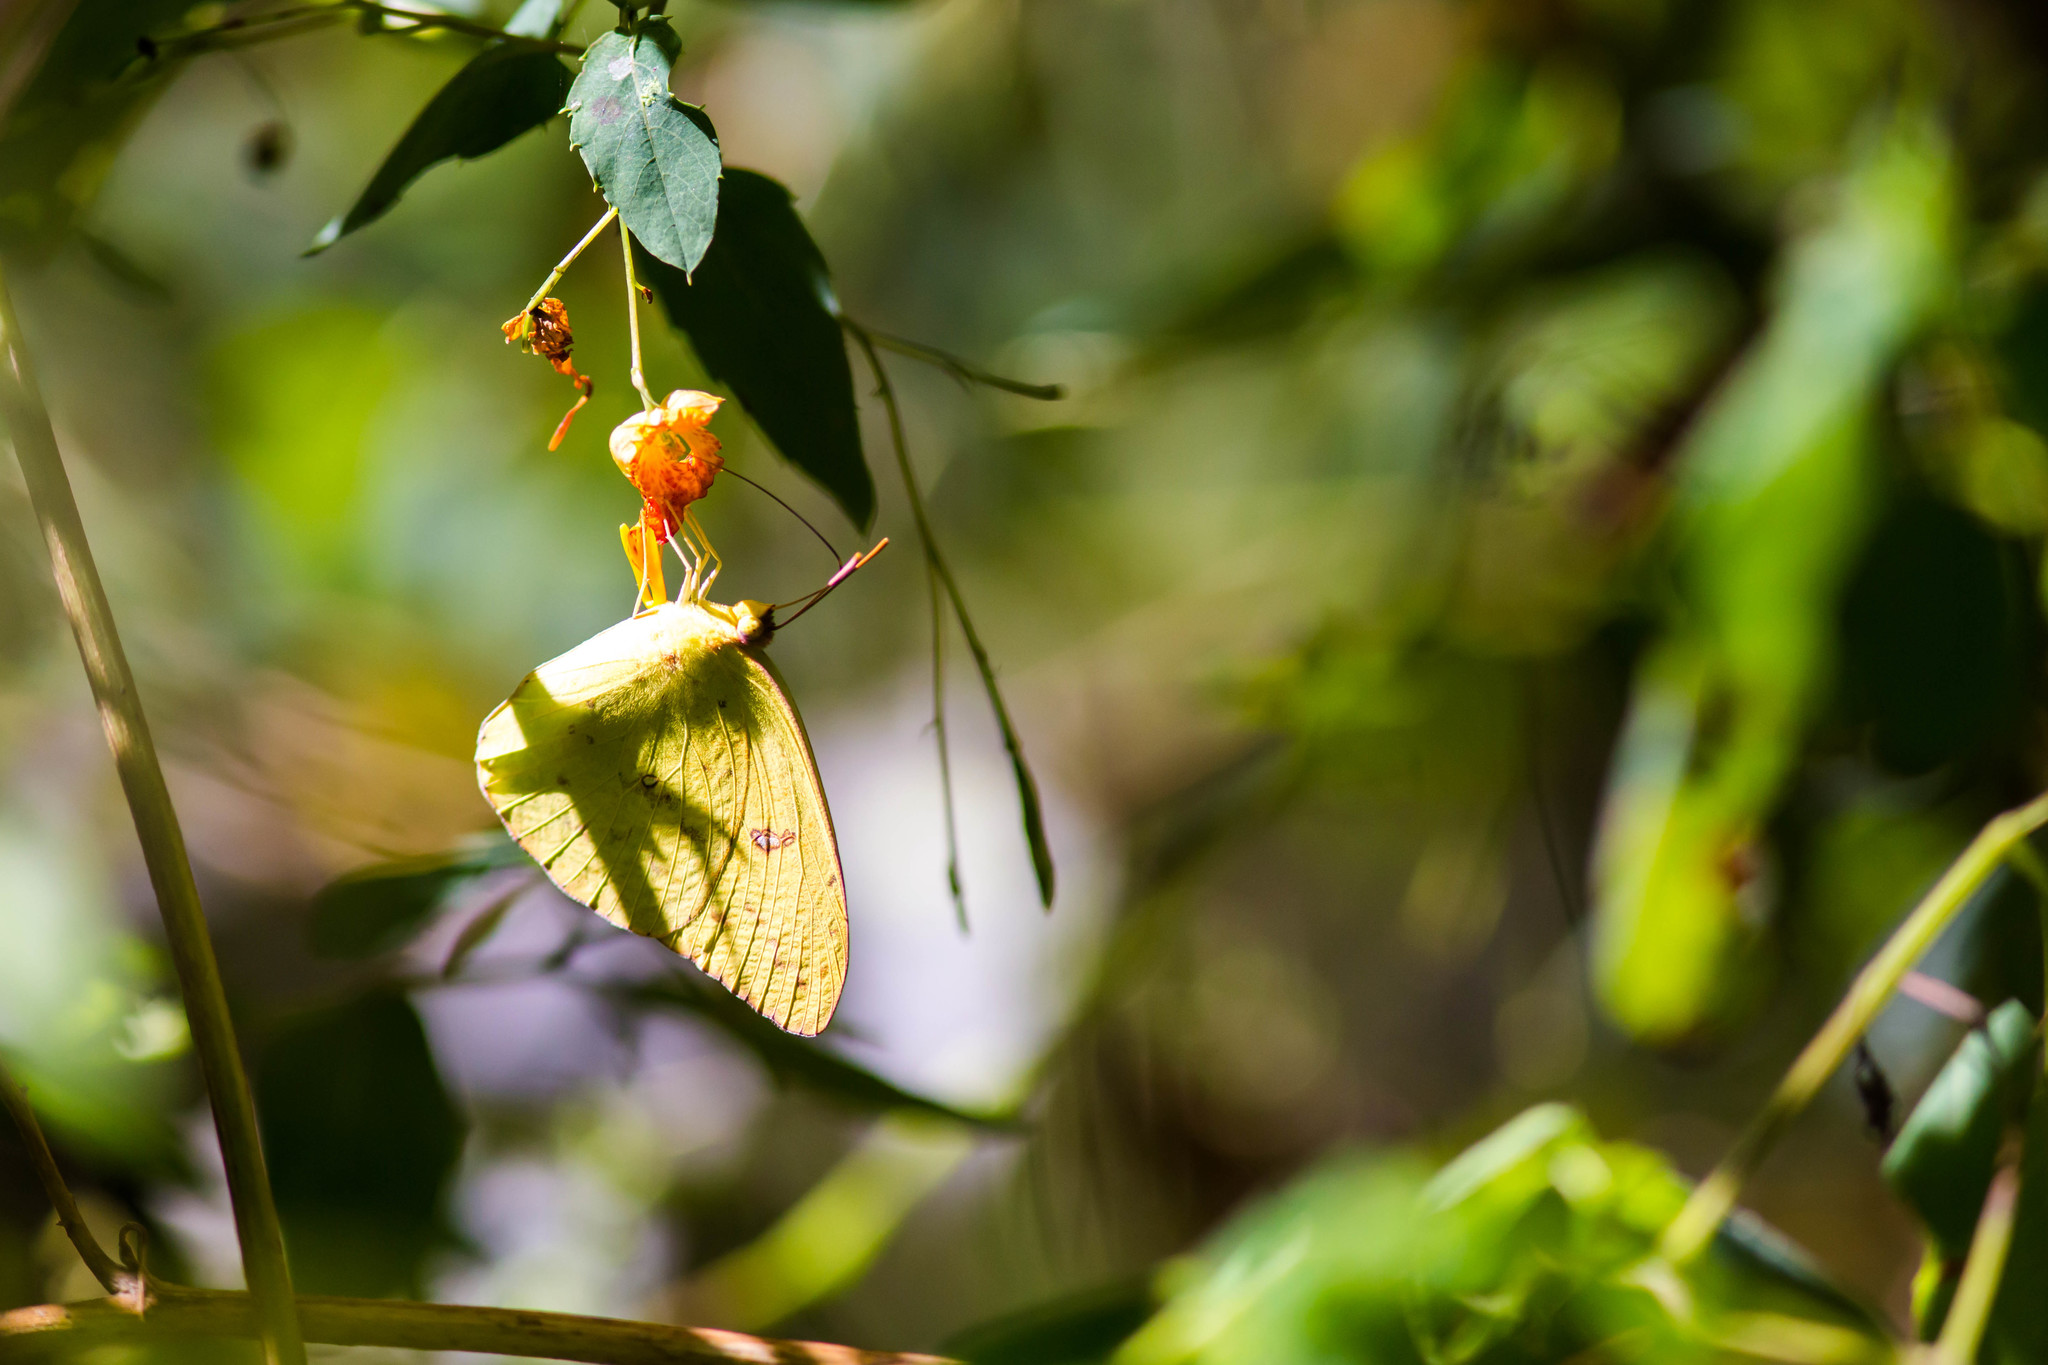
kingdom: Animalia
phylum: Arthropoda
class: Insecta
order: Lepidoptera
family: Pieridae
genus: Phoebis
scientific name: Phoebis sennae
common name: Cloudless sulphur
